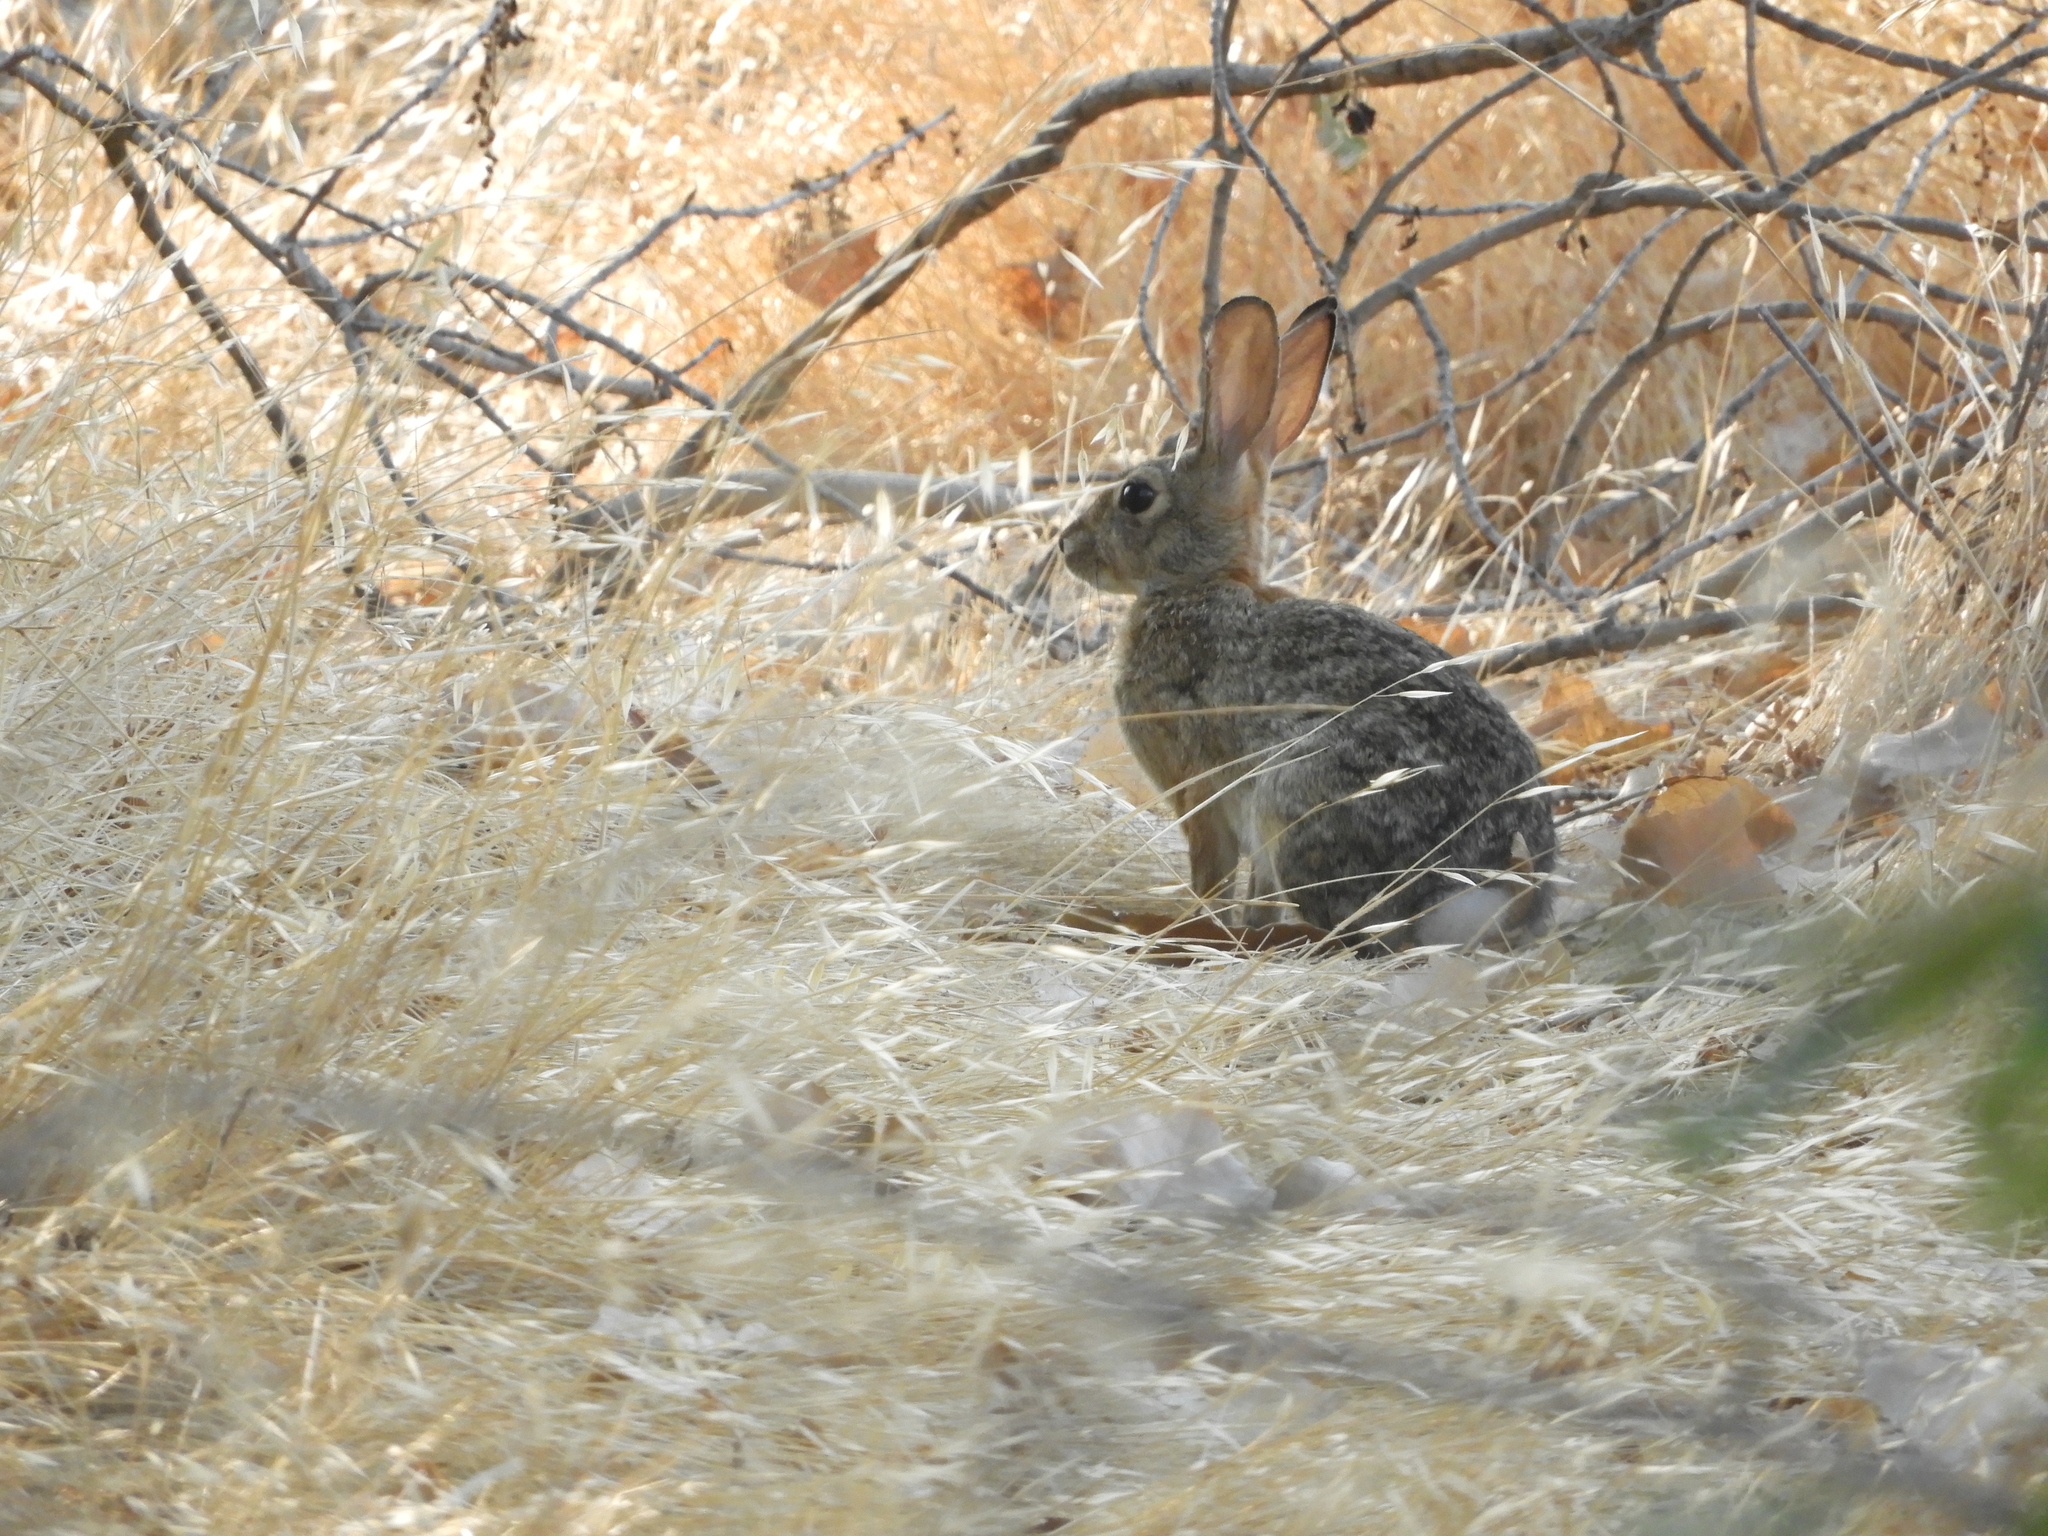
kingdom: Animalia
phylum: Chordata
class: Mammalia
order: Lagomorpha
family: Leporidae
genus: Sylvilagus
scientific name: Sylvilagus audubonii
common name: Desert cottontail
